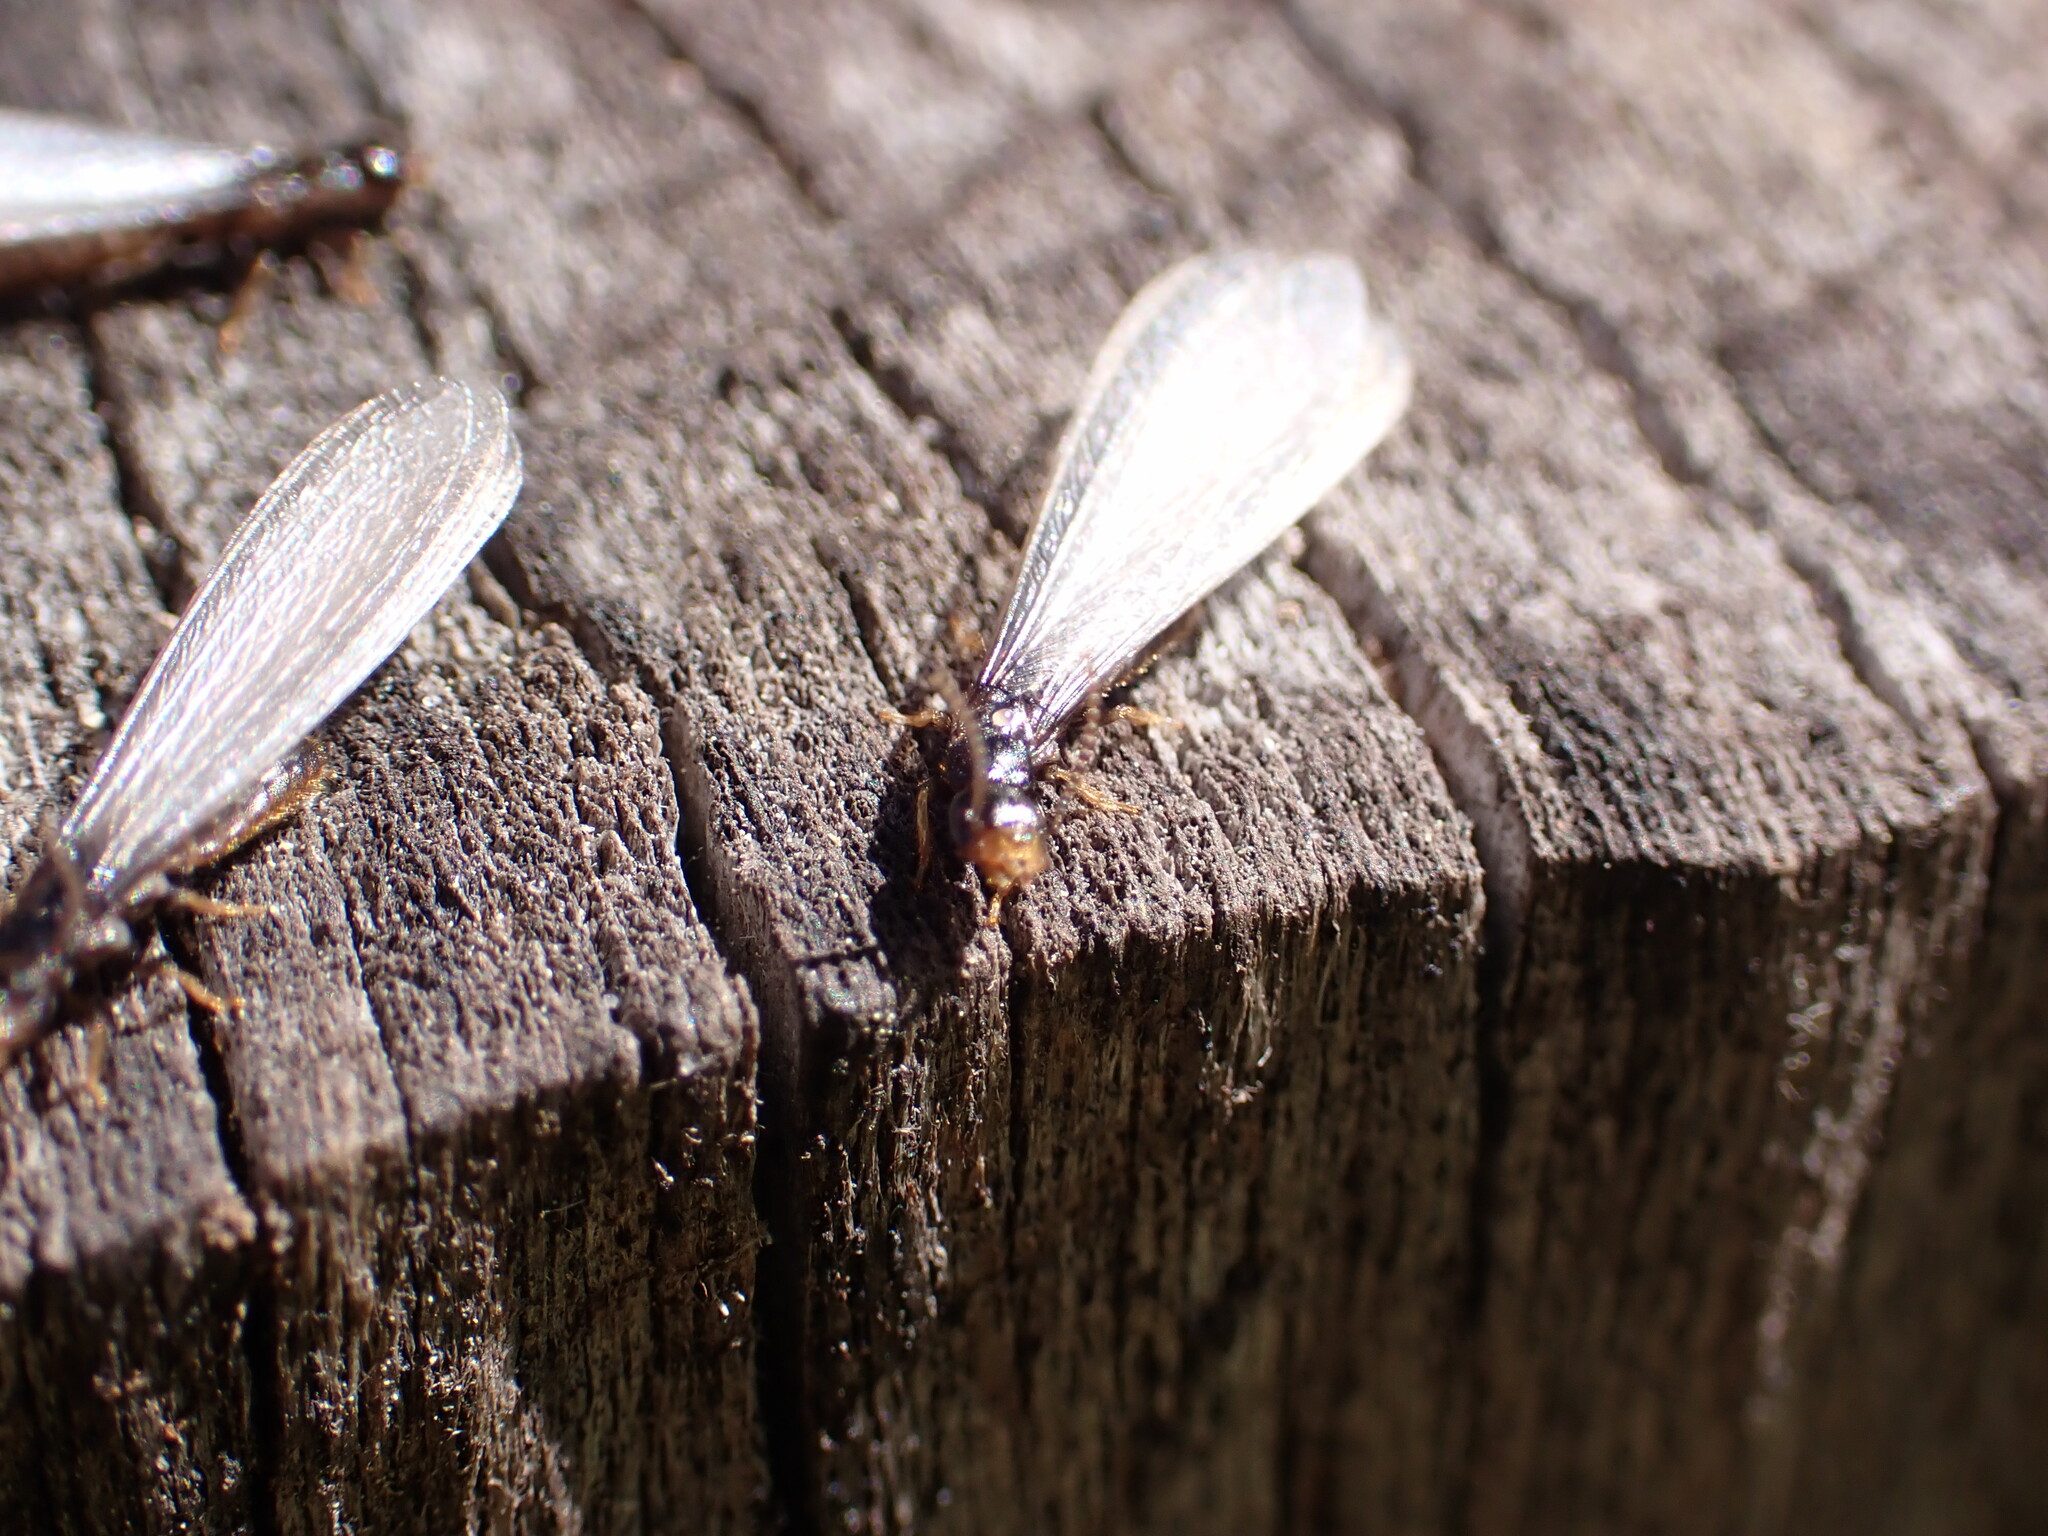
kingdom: Animalia
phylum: Arthropoda
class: Insecta
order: Blattodea
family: Rhinotermitidae
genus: Reticulitermes
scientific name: Reticulitermes flavipes
